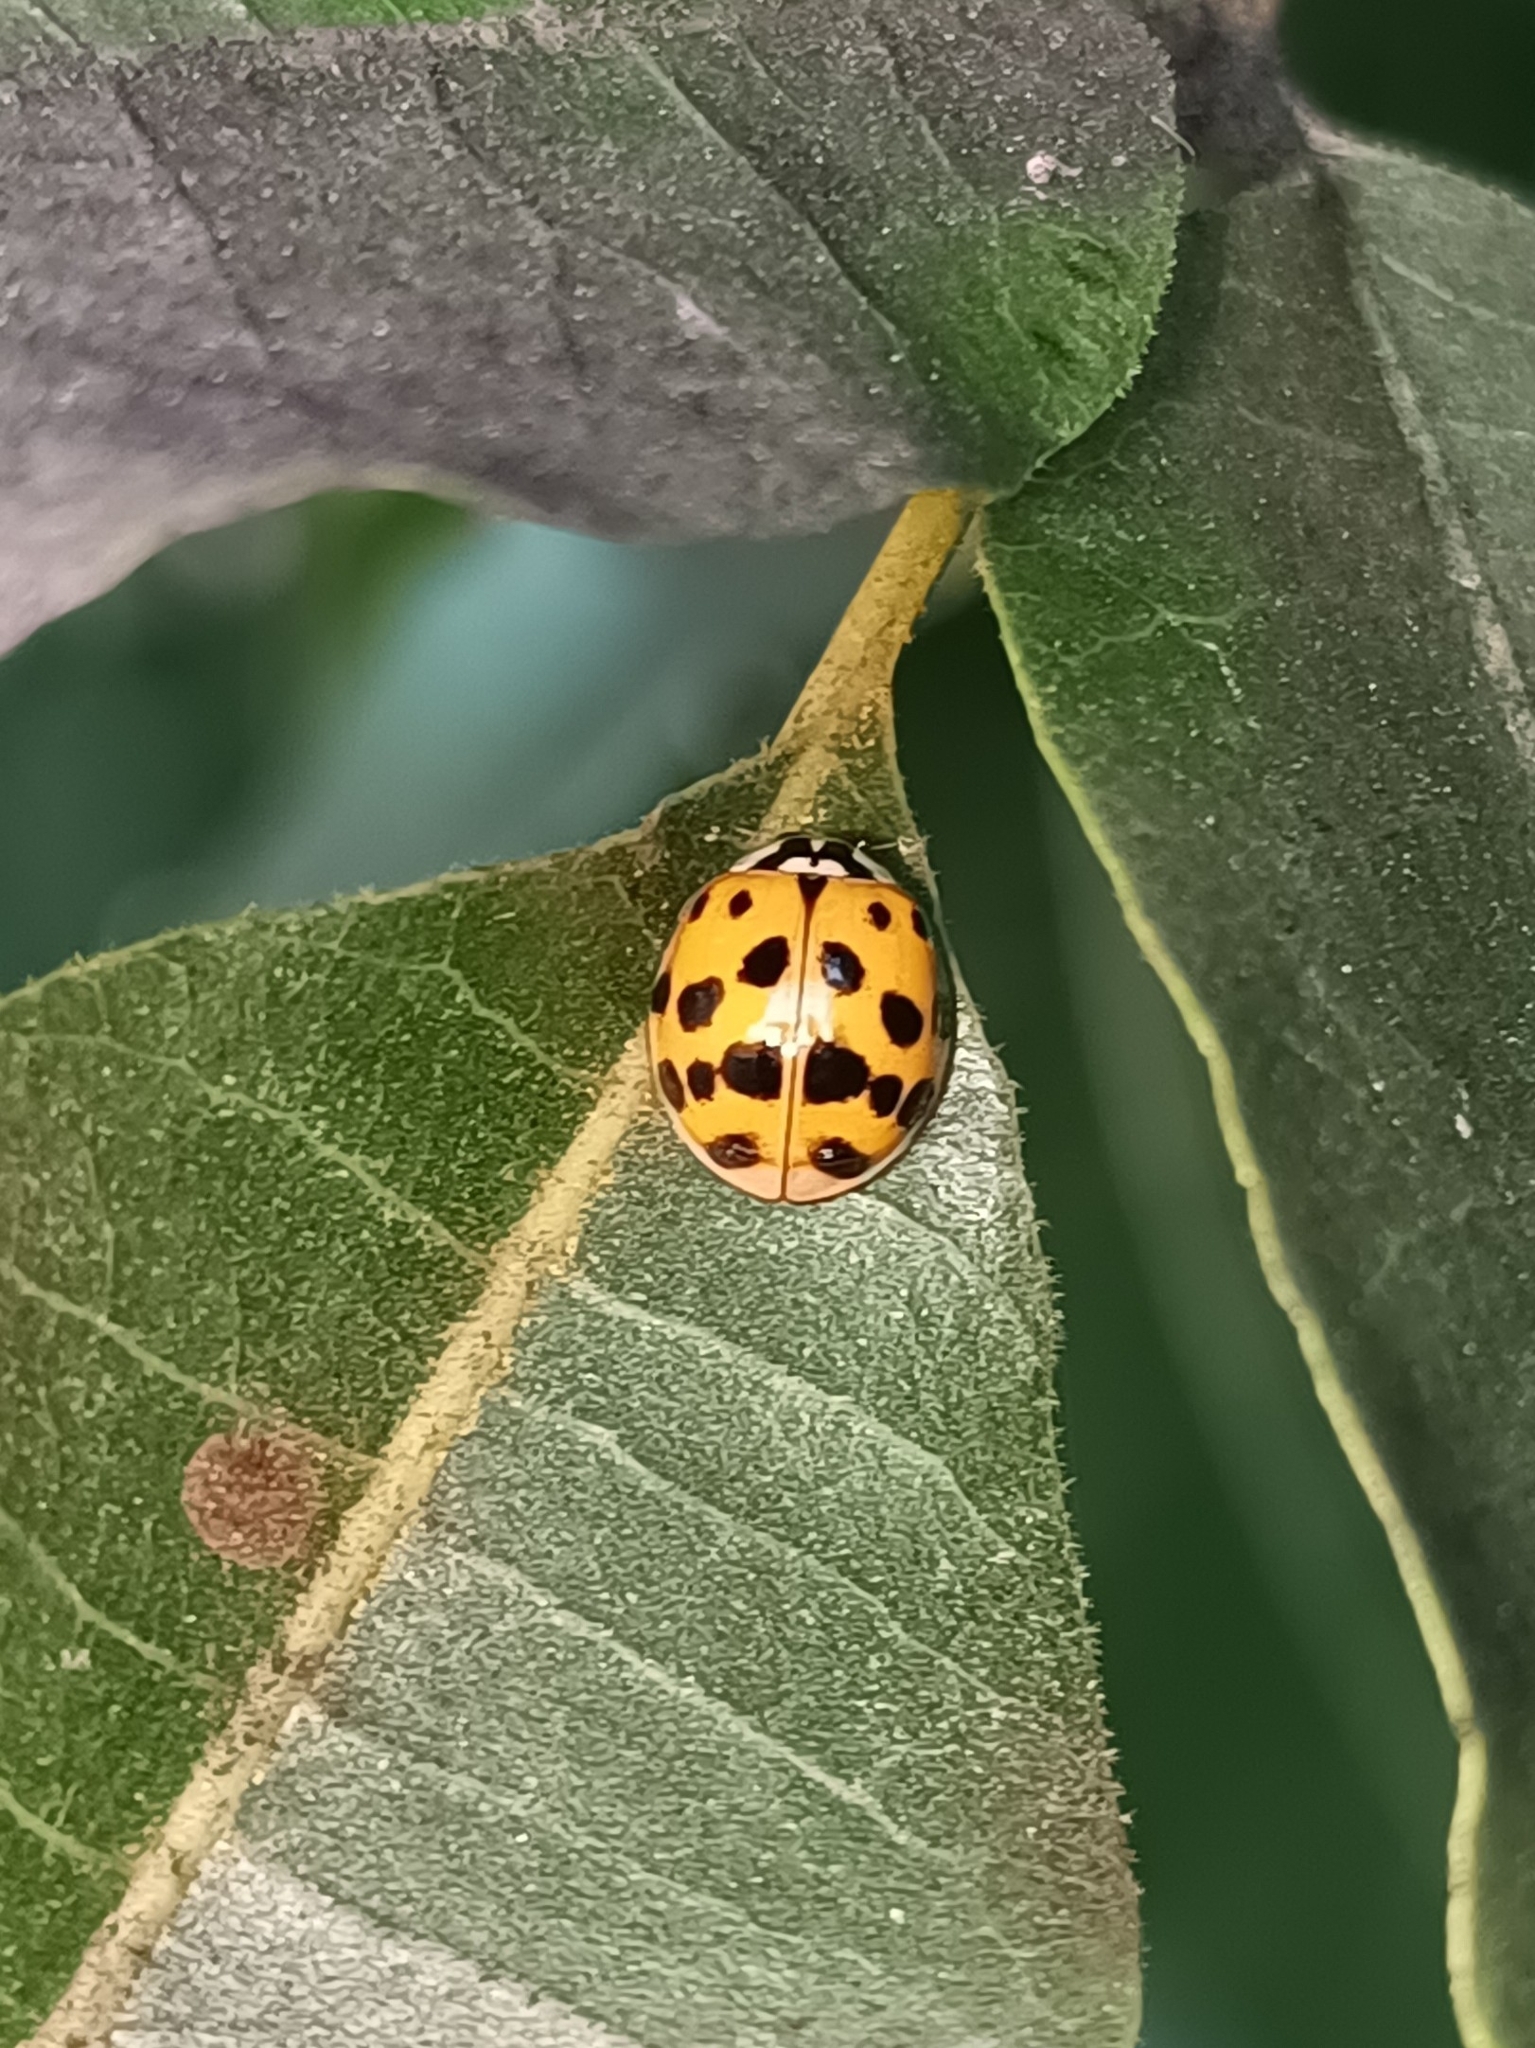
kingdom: Animalia
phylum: Arthropoda
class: Insecta
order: Coleoptera
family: Coccinellidae
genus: Harmonia
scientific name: Harmonia axyridis
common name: Harlequin ladybird
